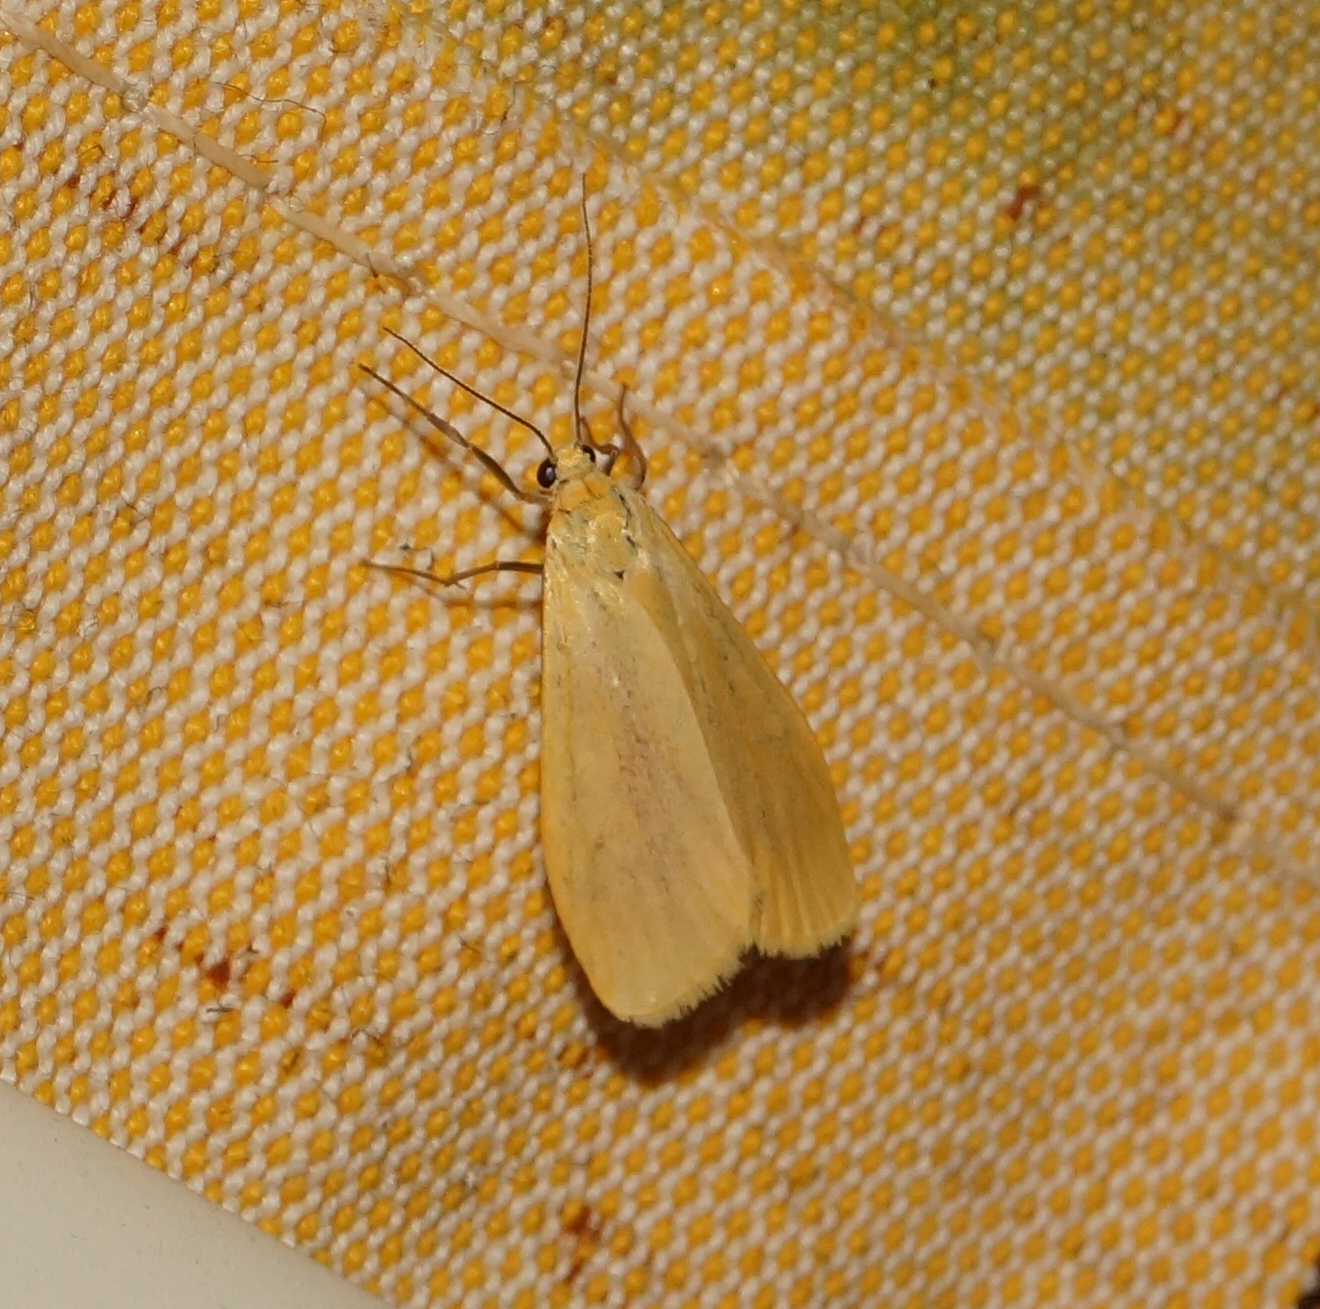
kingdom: Animalia
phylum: Arthropoda
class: Insecta
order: Lepidoptera
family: Erebidae
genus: Wittia
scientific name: Wittia sororcula
